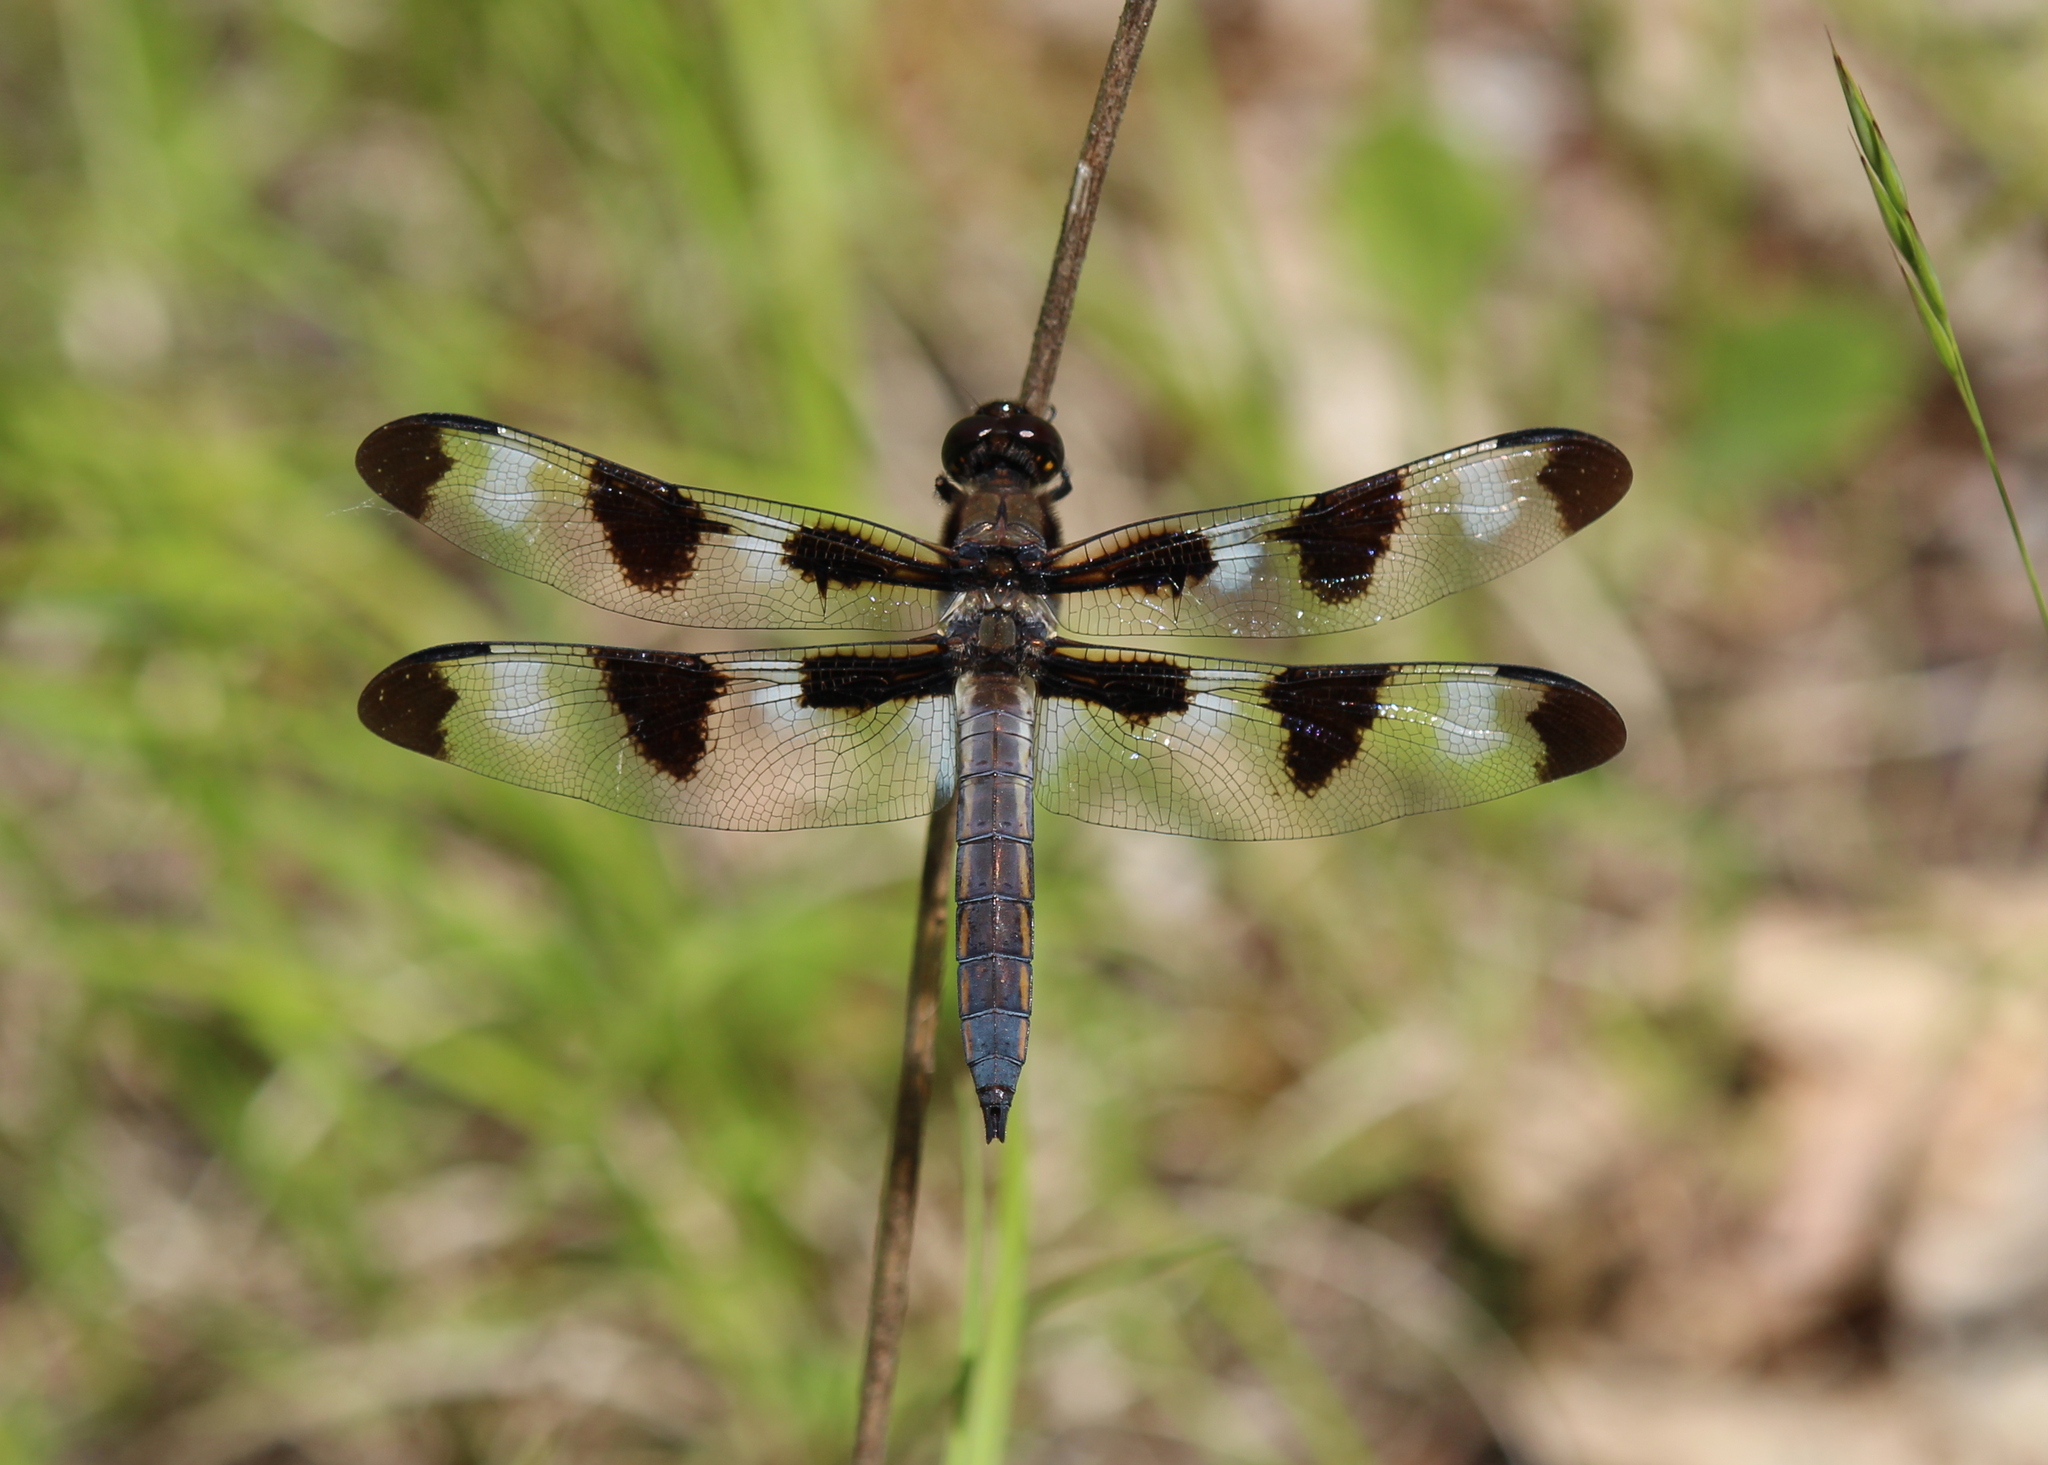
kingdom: Animalia
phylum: Arthropoda
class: Insecta
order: Odonata
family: Libellulidae
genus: Libellula
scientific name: Libellula pulchella
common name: Twelve-spotted skimmer
